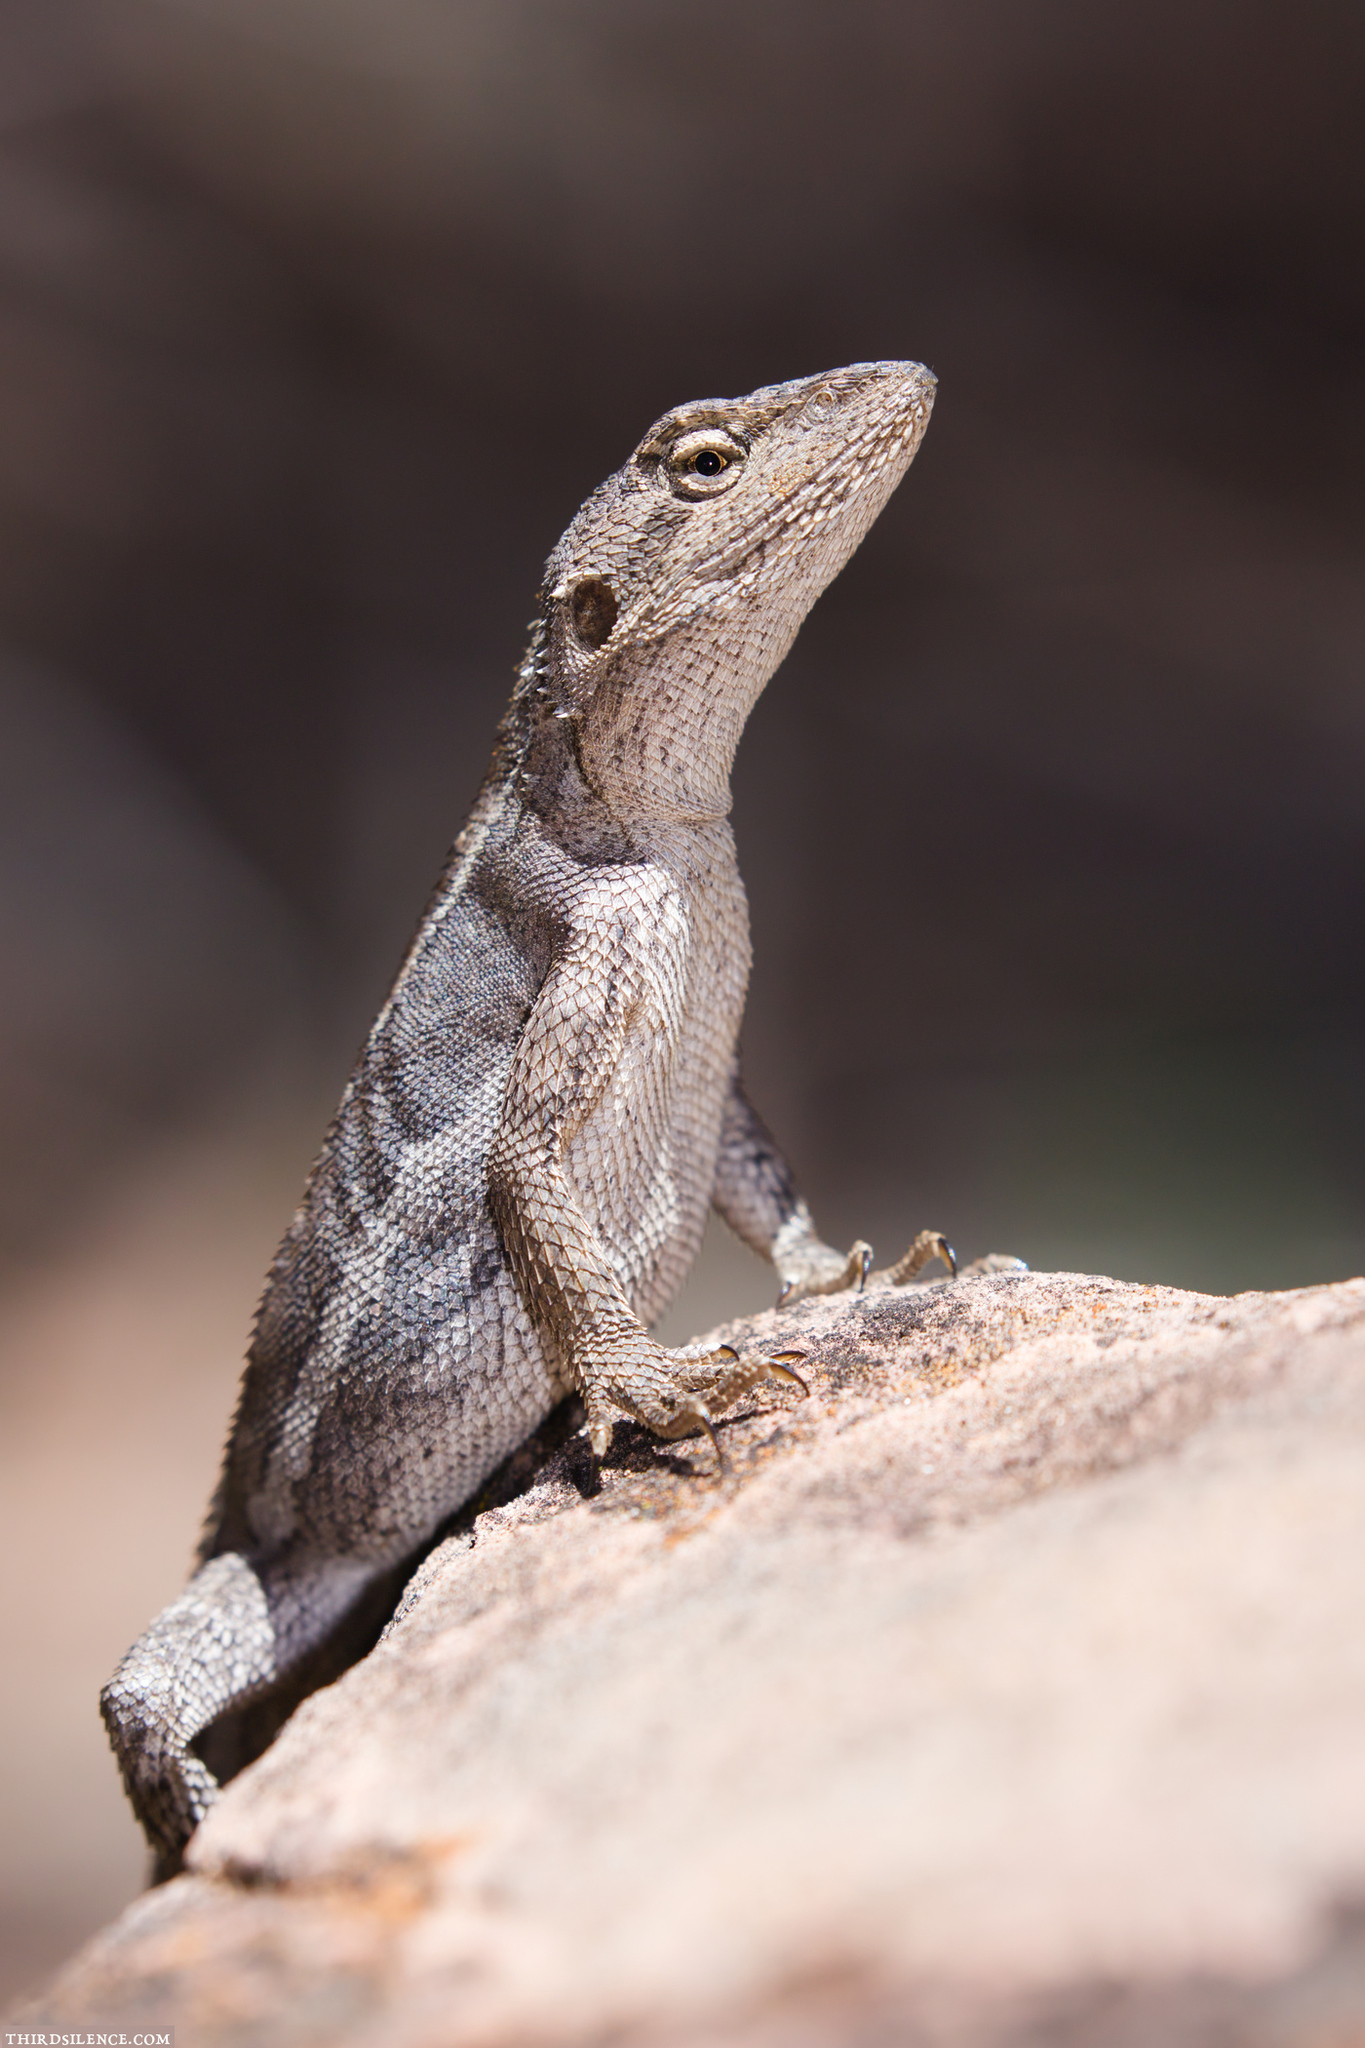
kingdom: Animalia
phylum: Chordata
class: Squamata
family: Agamidae
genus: Diporiphora
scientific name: Diporiphora nobbi
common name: Nobbi
